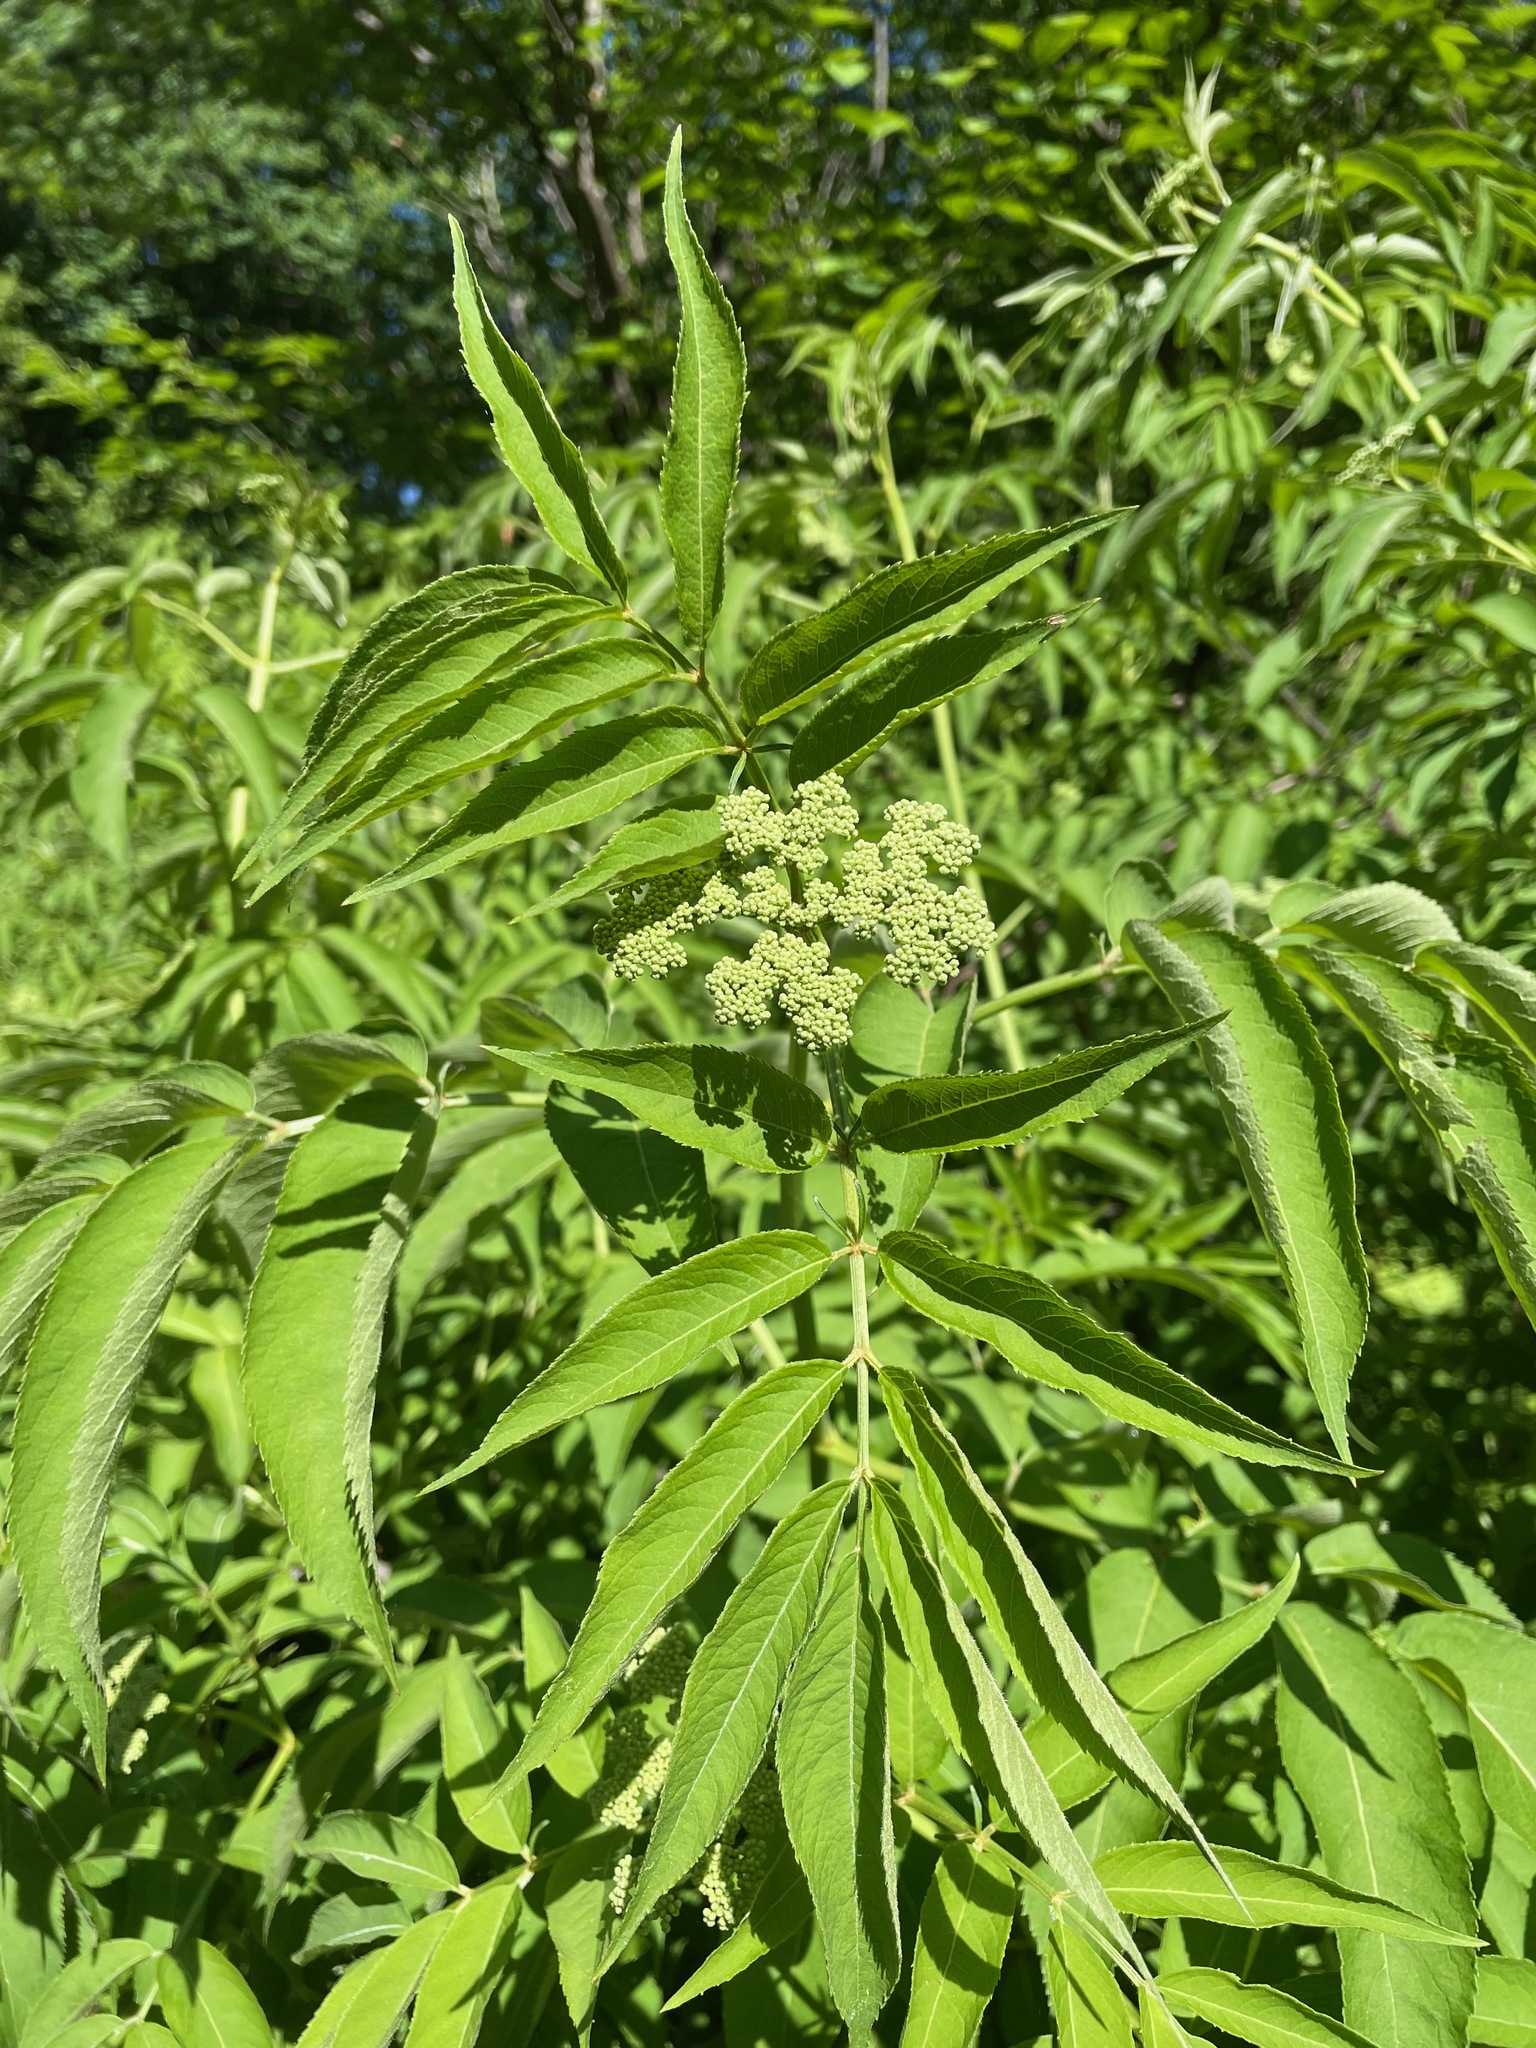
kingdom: Plantae
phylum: Tracheophyta
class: Magnoliopsida
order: Dipsacales
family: Viburnaceae
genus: Sambucus
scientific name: Sambucus canadensis
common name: American elder
